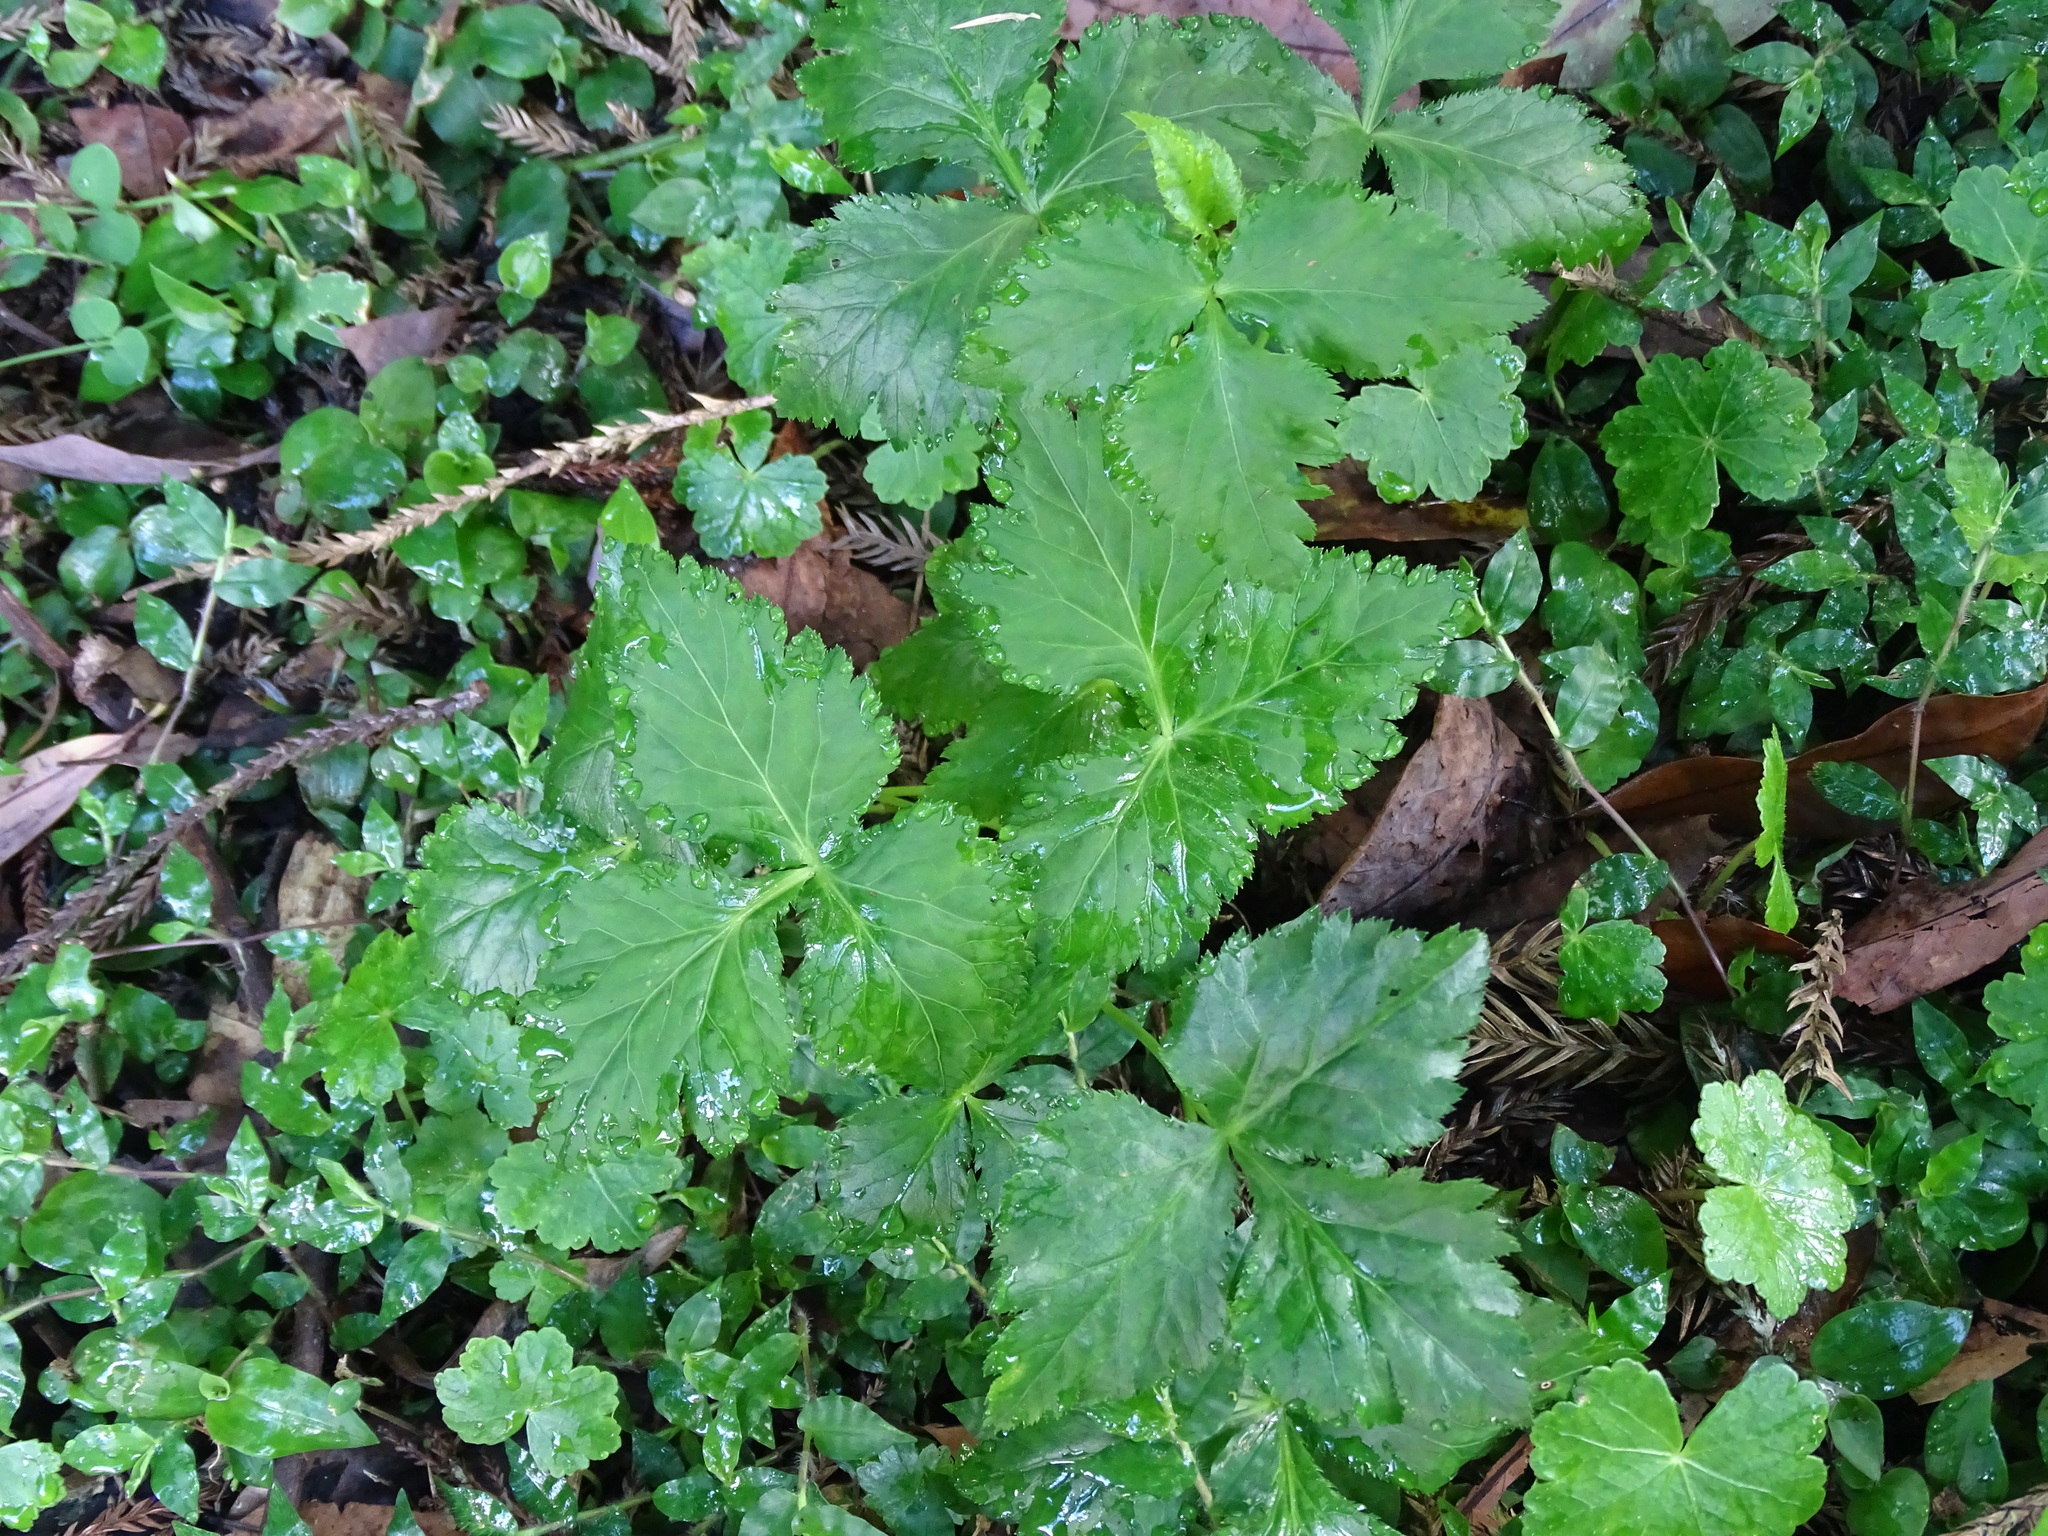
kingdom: Plantae
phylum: Tracheophyta
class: Magnoliopsida
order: Apiales
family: Apiaceae
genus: Cryptotaenia
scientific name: Cryptotaenia japonica
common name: Japanese cryptotaenia
